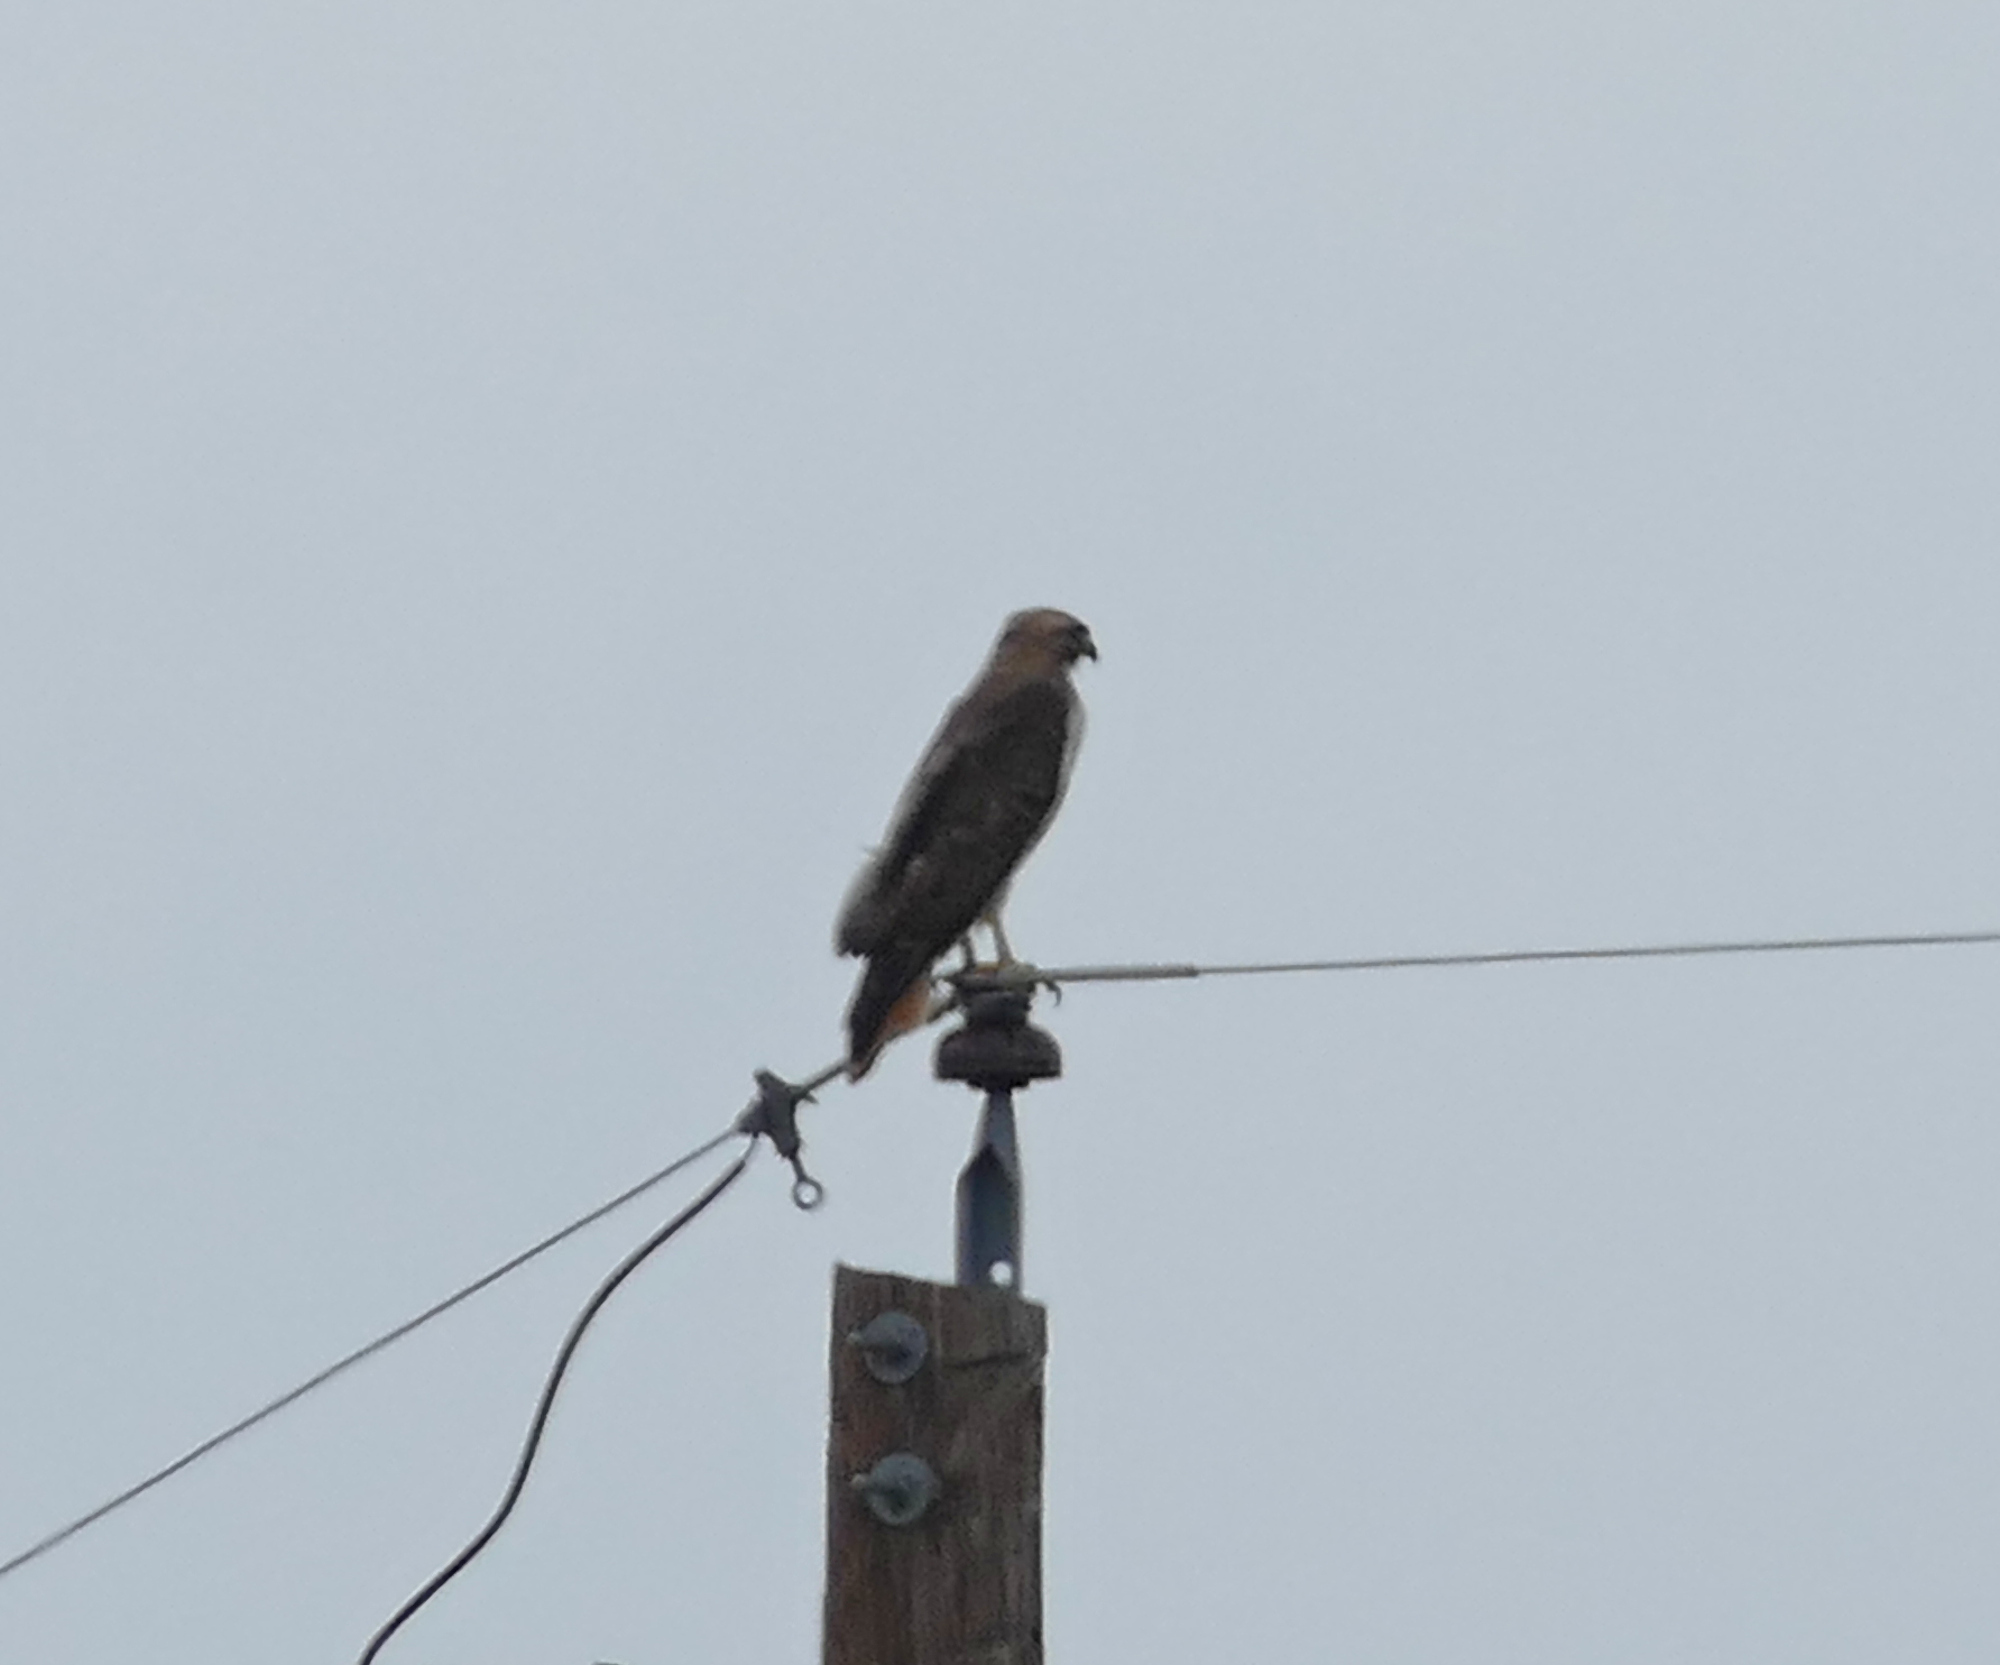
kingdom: Animalia
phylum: Chordata
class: Aves
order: Accipitriformes
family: Accipitridae
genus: Buteo
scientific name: Buteo jamaicensis
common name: Red-tailed hawk
